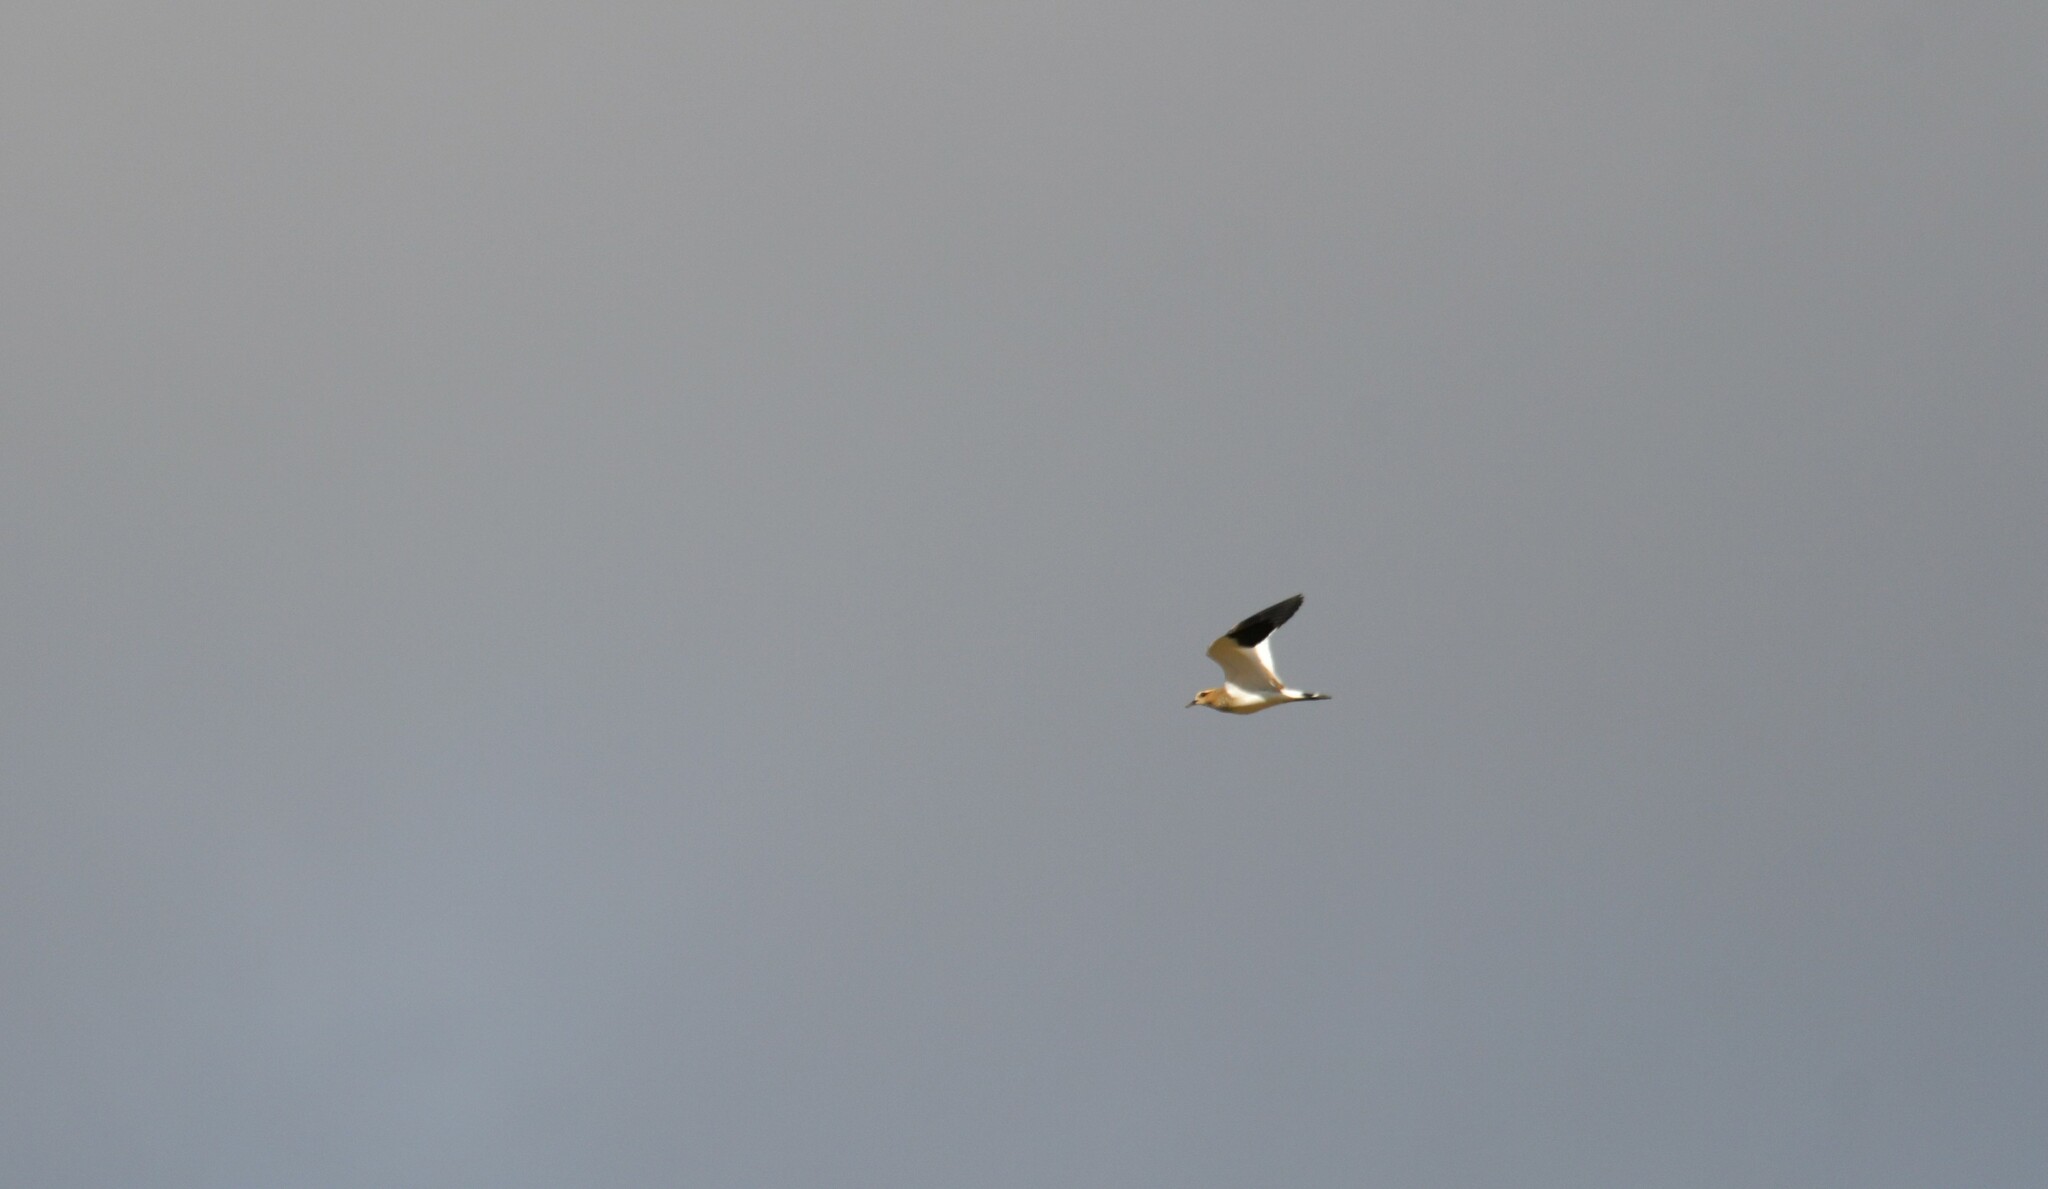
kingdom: Animalia
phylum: Chordata
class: Aves
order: Charadriiformes
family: Charadriidae
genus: Vanellus
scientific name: Vanellus gregarius
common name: Sociable lapwing
